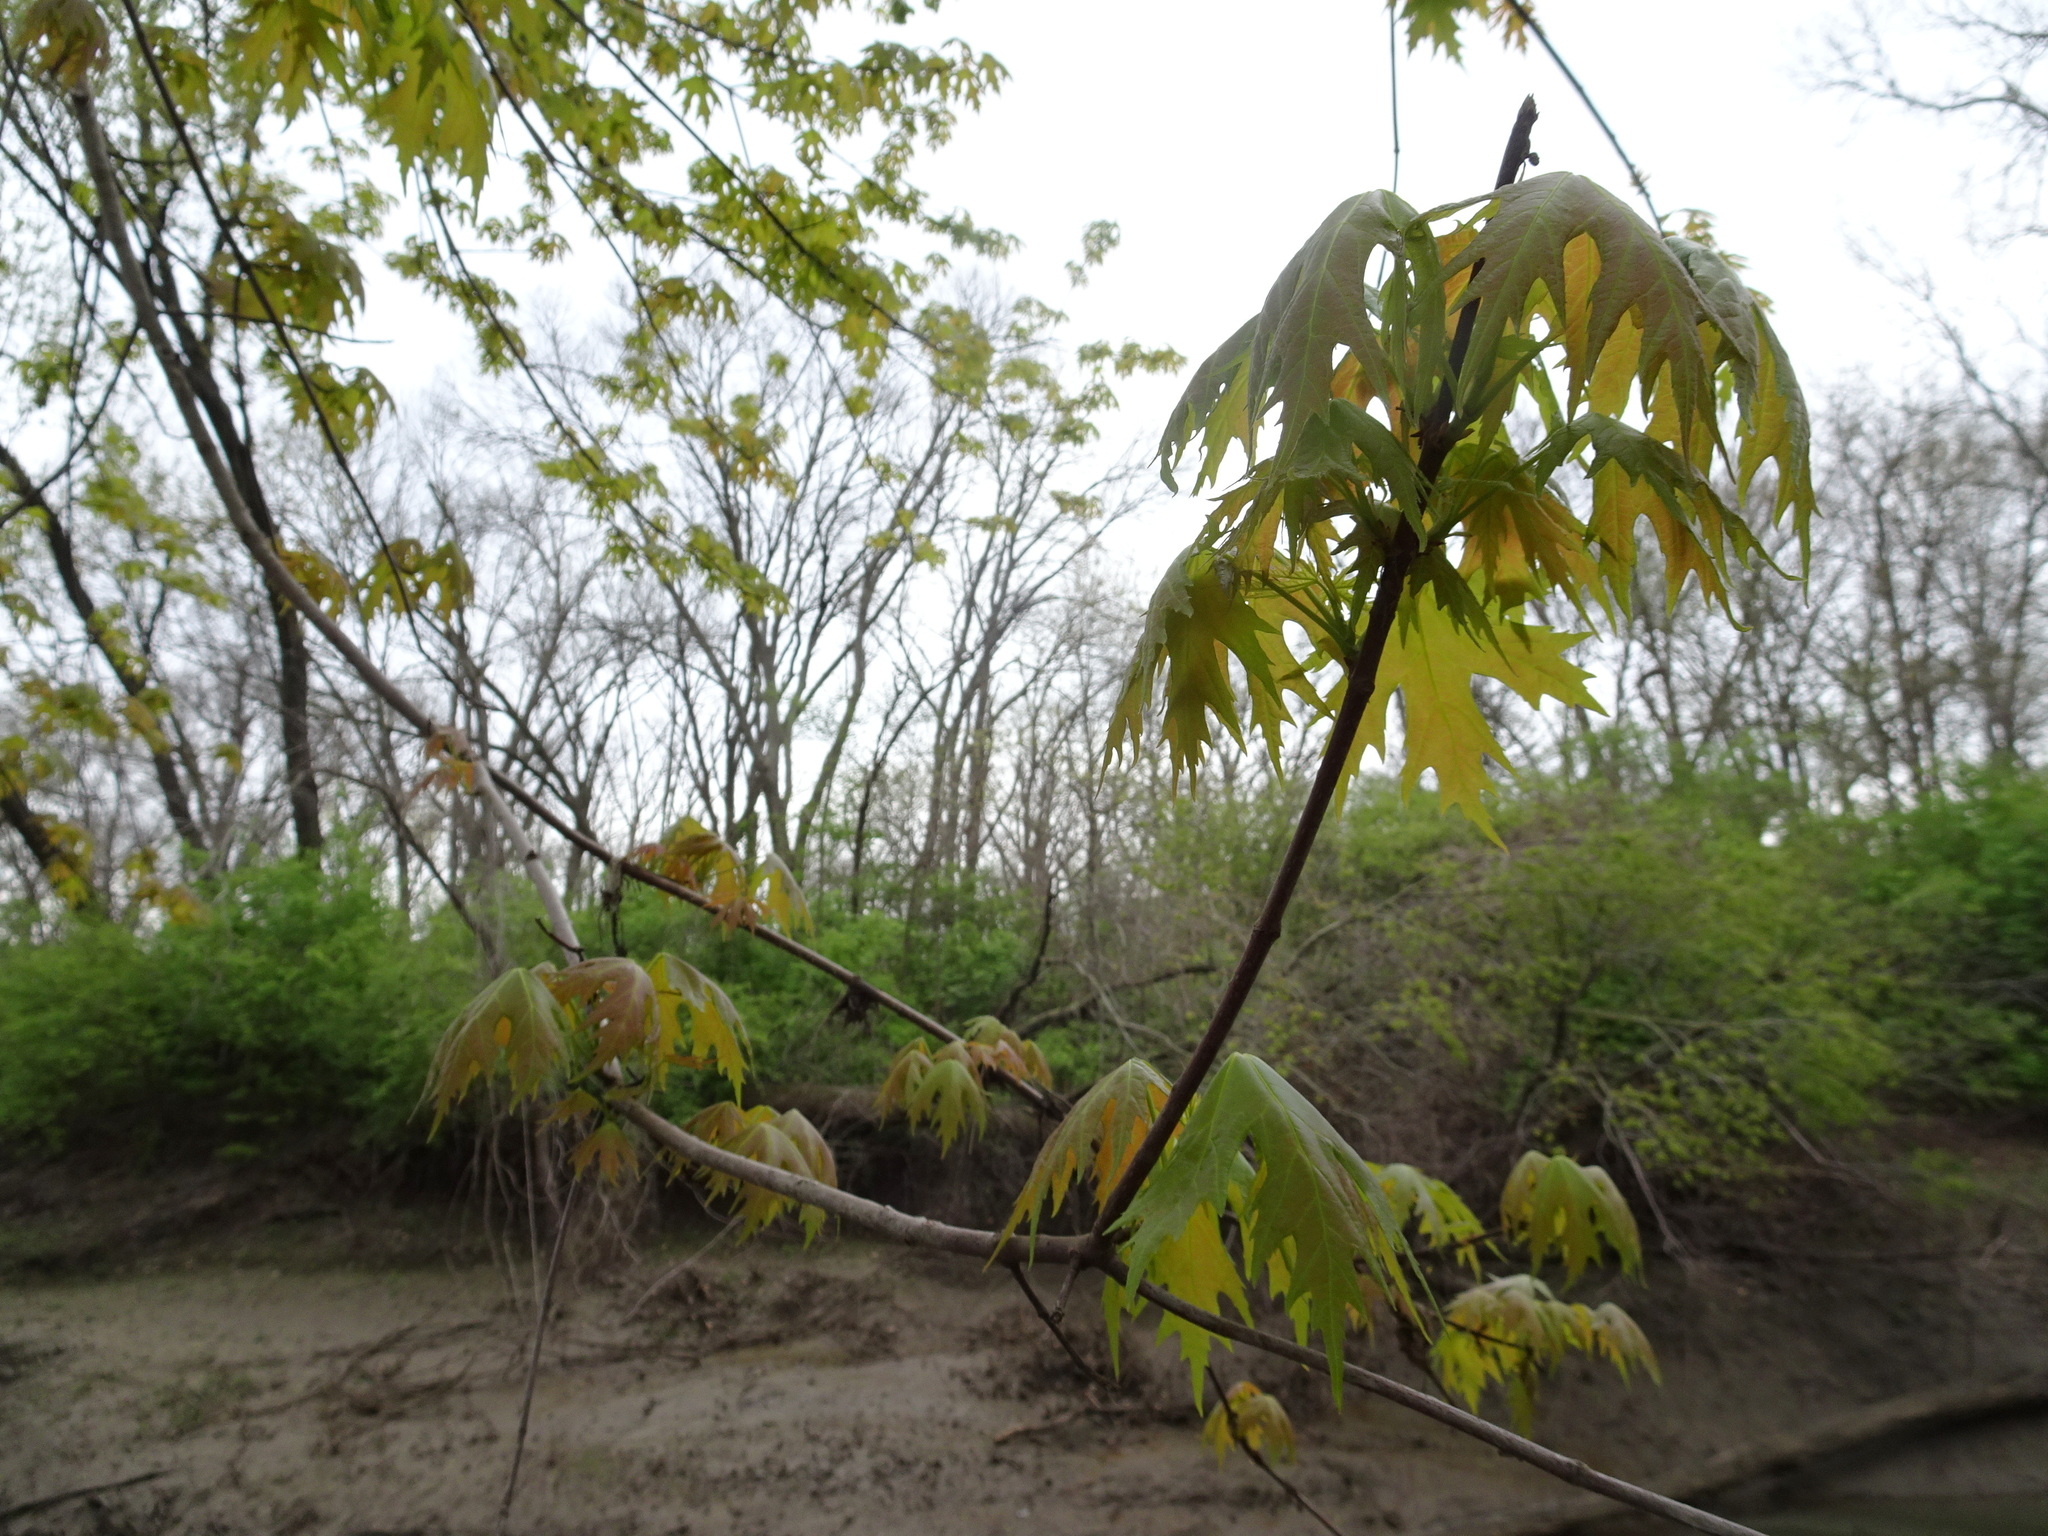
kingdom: Plantae
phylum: Tracheophyta
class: Magnoliopsida
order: Sapindales
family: Sapindaceae
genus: Acer
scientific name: Acer saccharinum
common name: Silver maple
